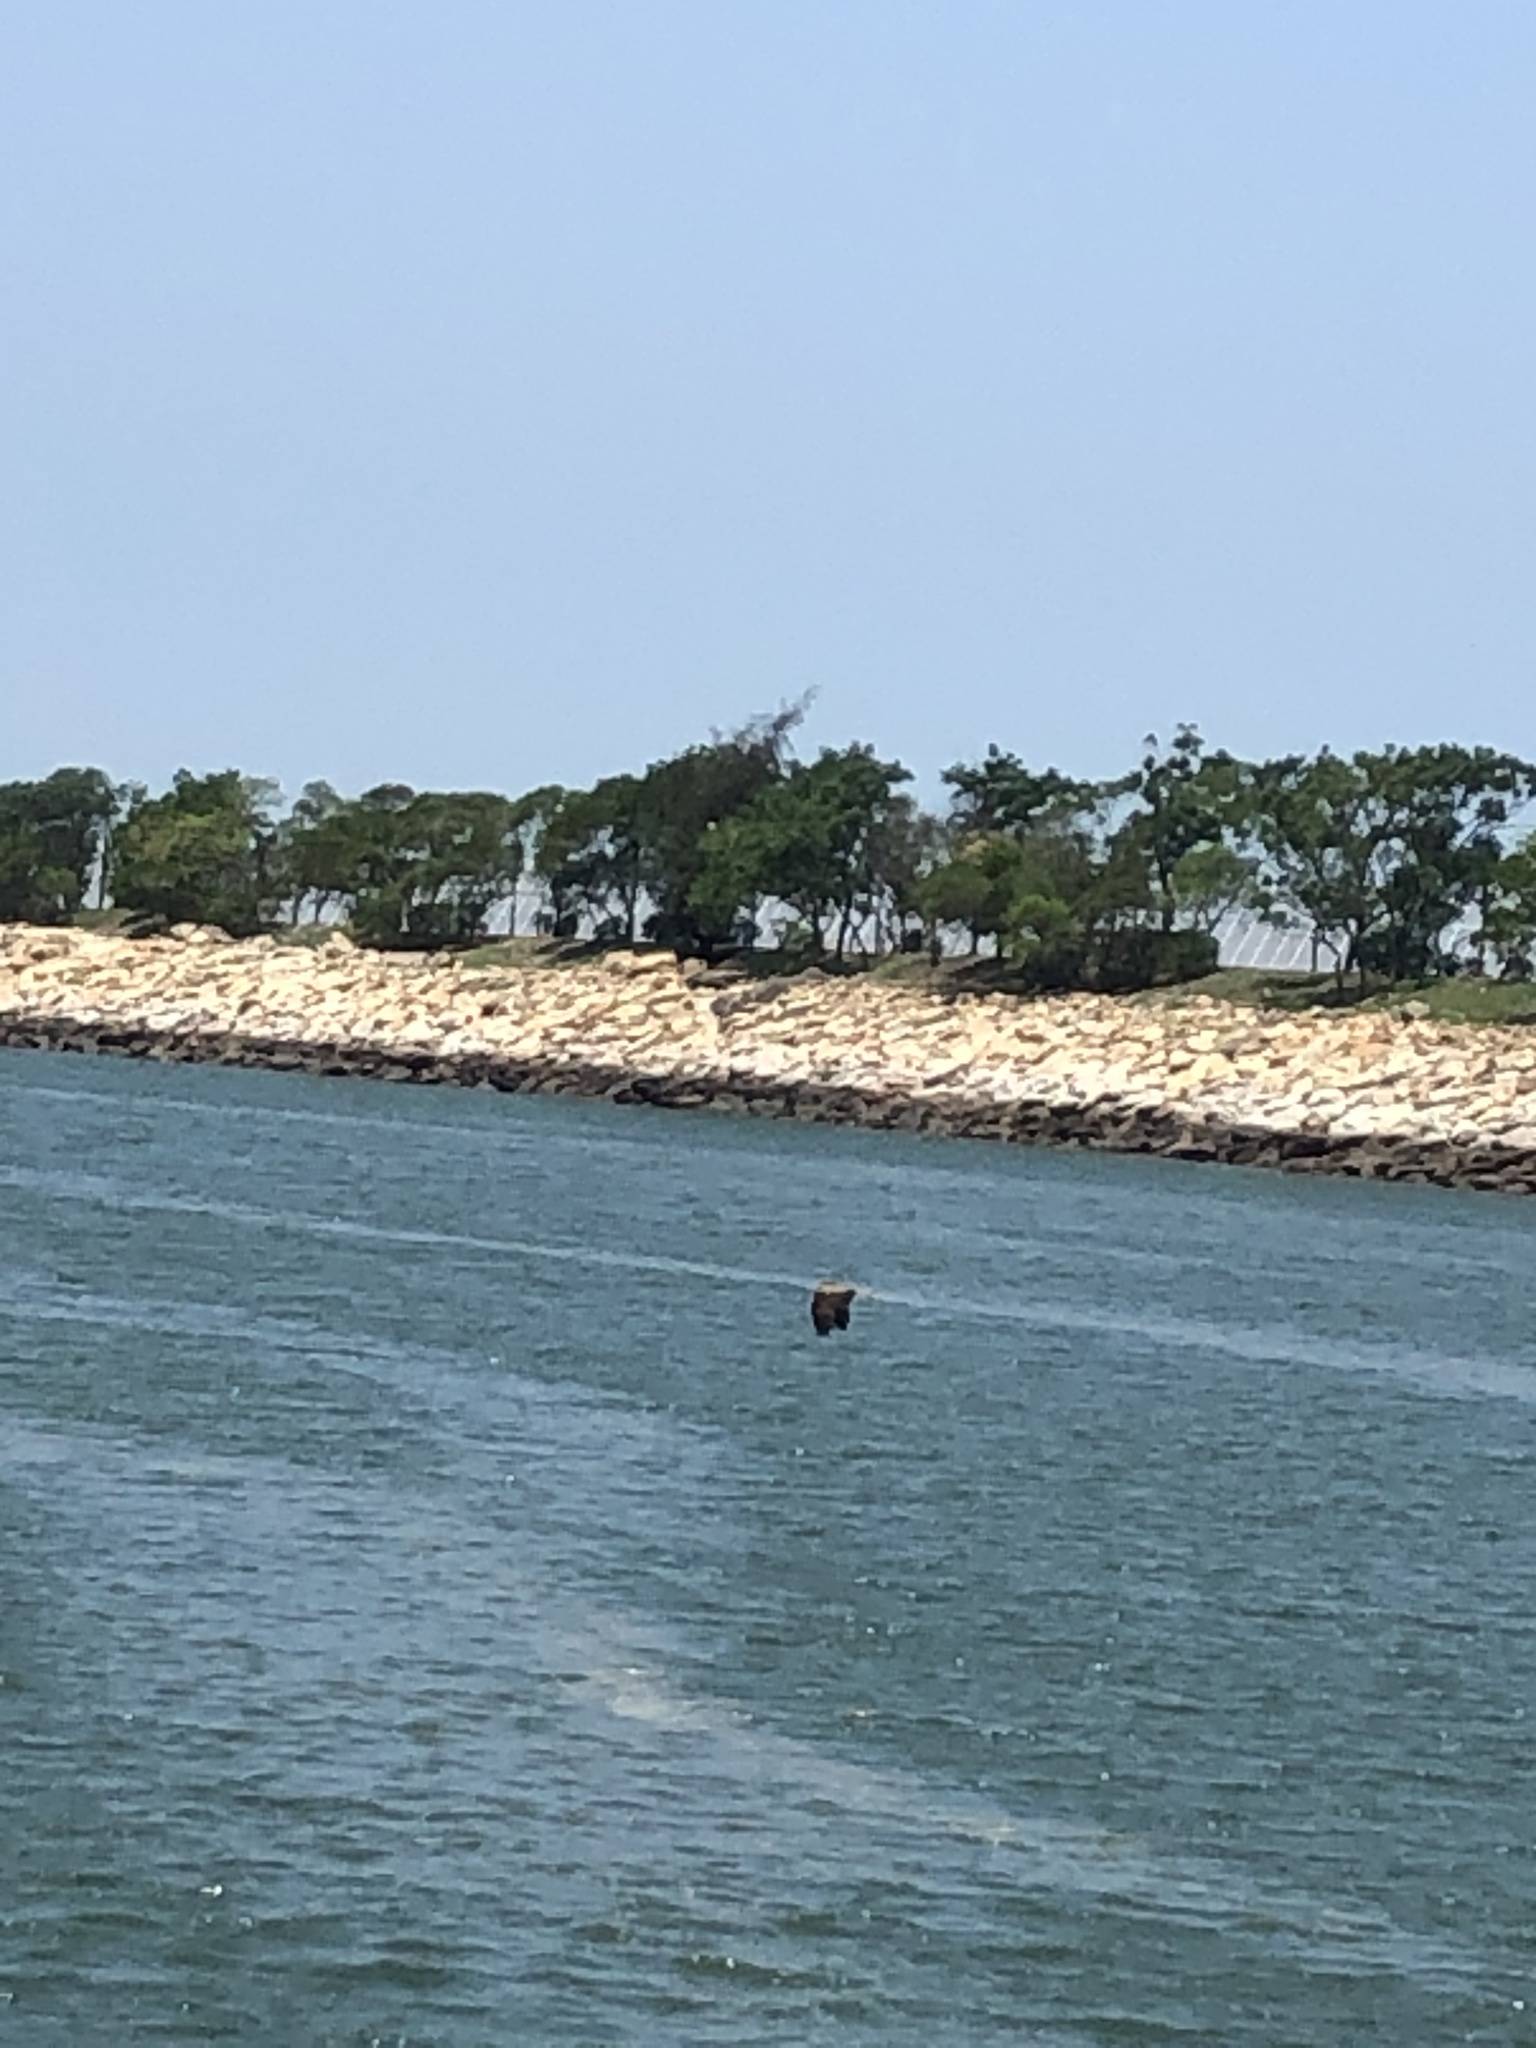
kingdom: Animalia
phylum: Chordata
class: Aves
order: Accipitriformes
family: Accipitridae
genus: Milvus
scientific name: Milvus migrans
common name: Black kite
